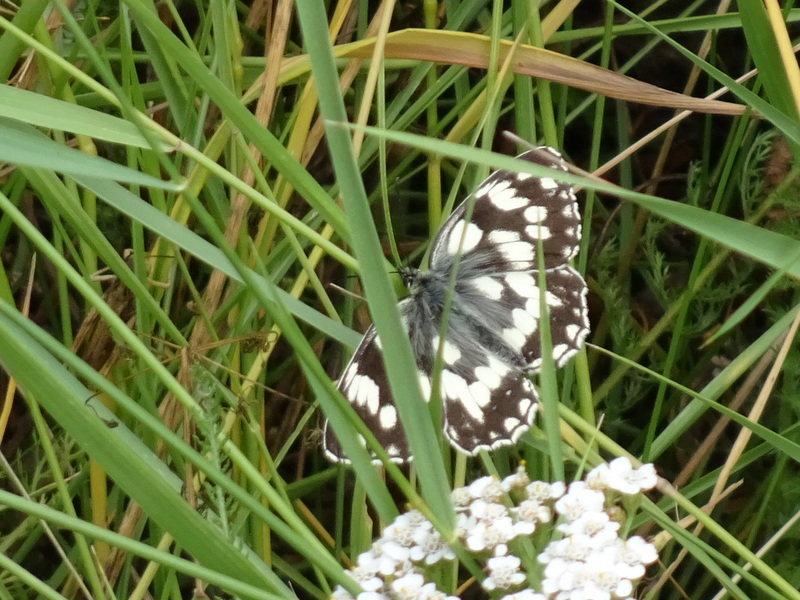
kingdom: Animalia
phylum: Arthropoda
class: Insecta
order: Lepidoptera
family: Nymphalidae
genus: Melanargia
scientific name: Melanargia galathea
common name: Marbled white
